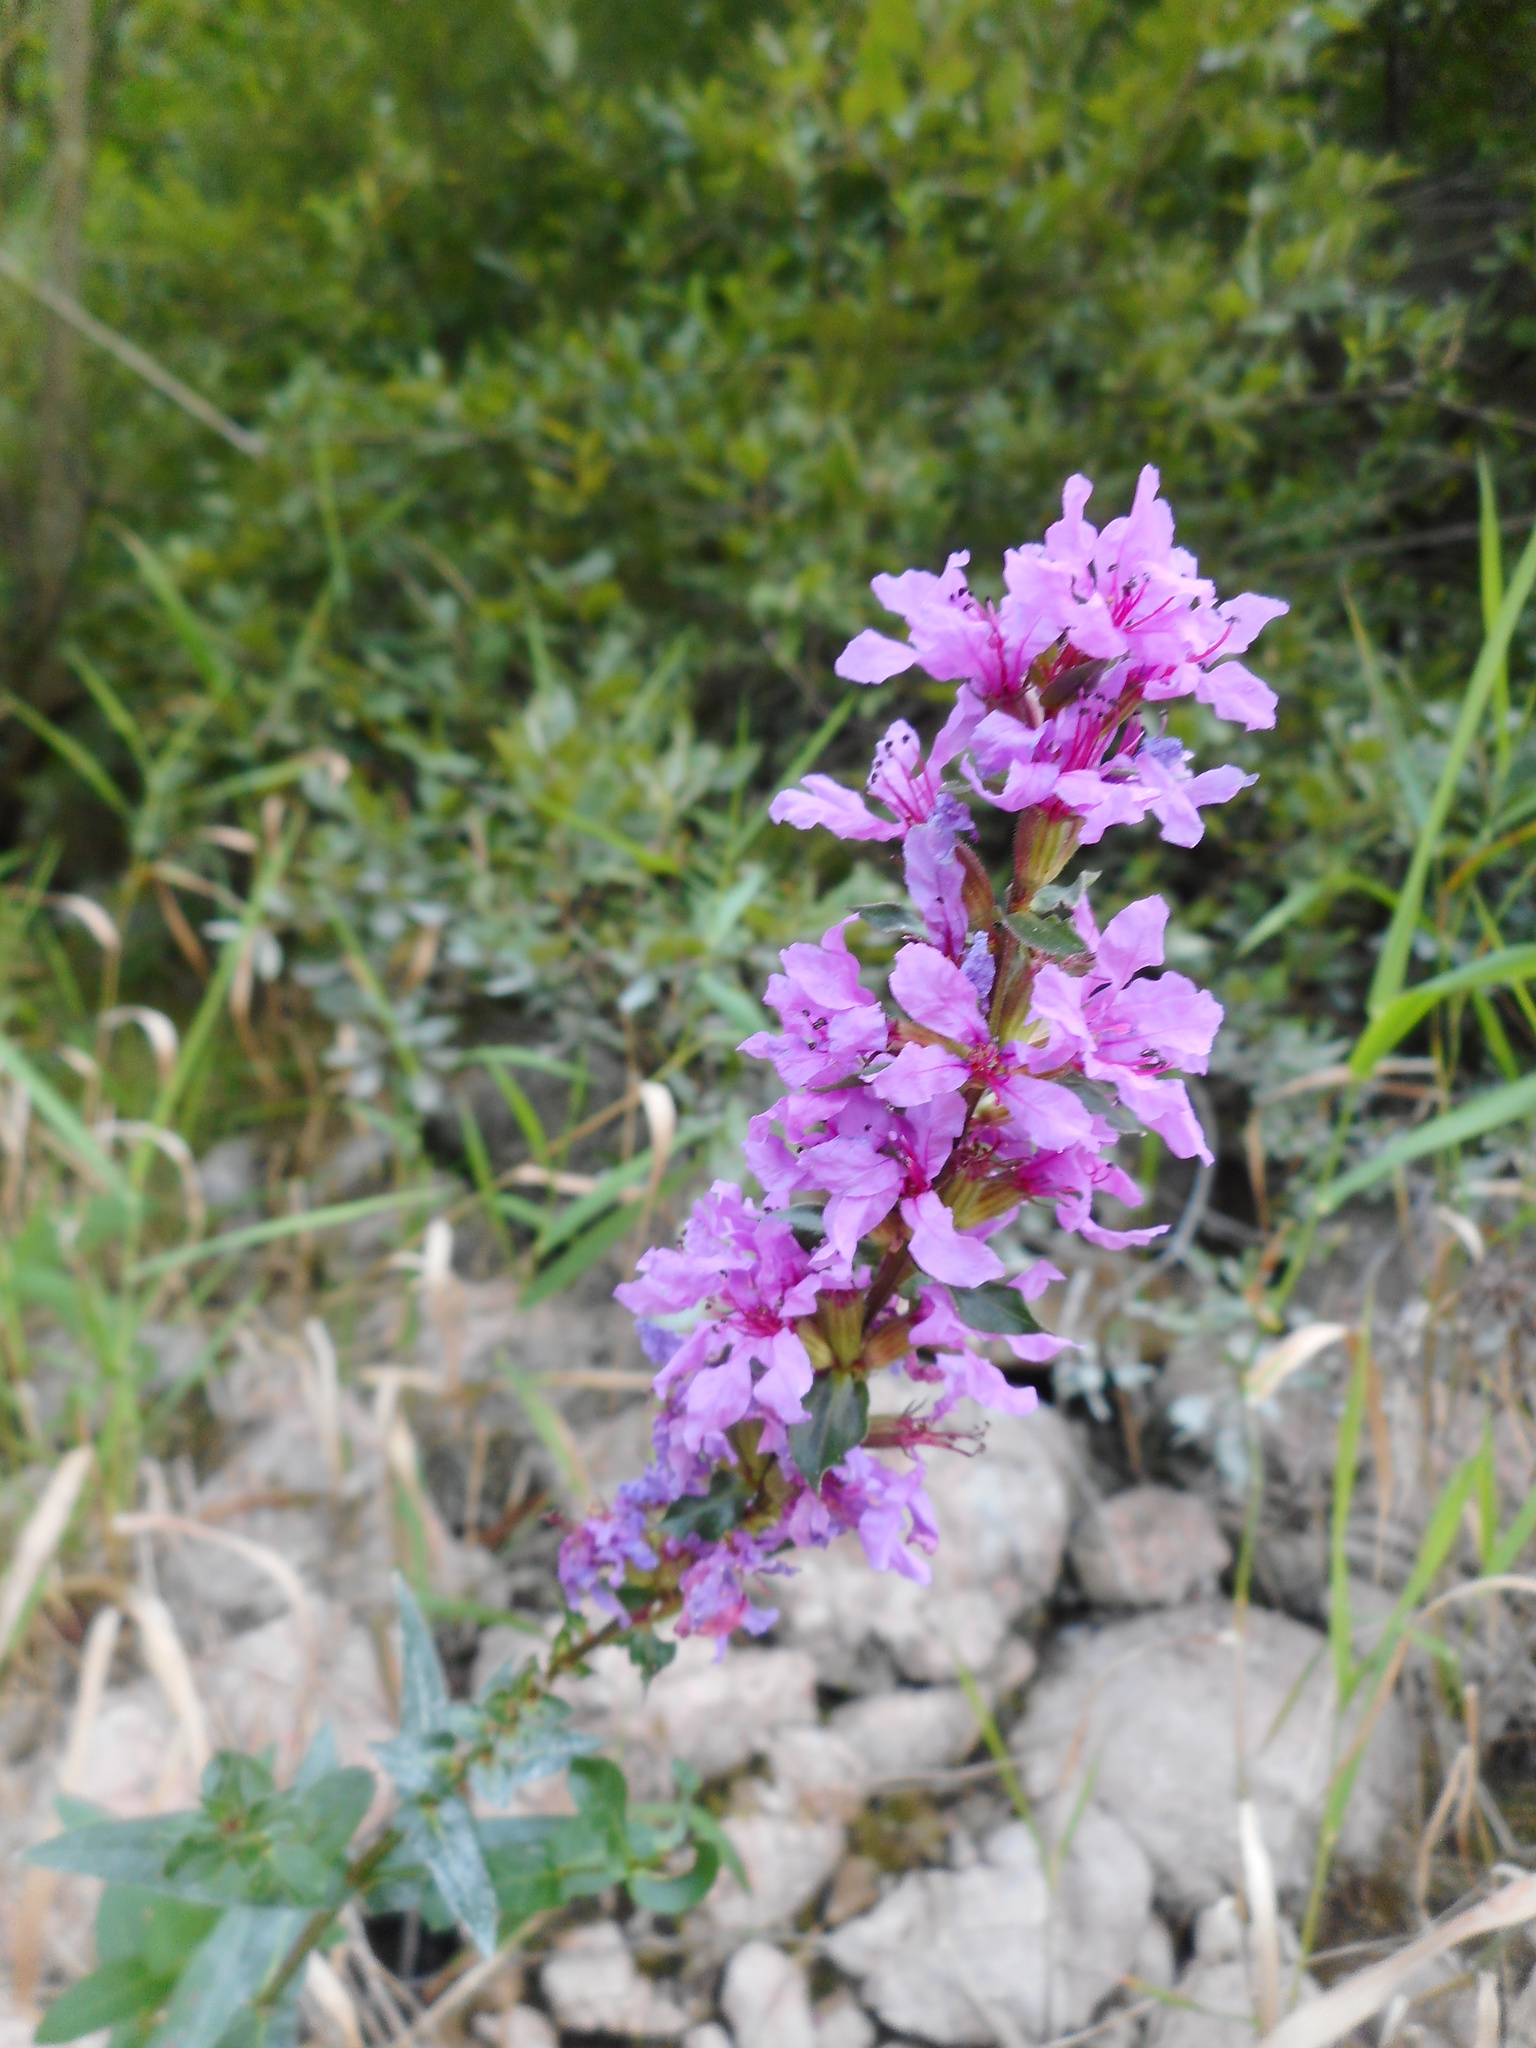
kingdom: Plantae
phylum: Tracheophyta
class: Magnoliopsida
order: Myrtales
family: Lythraceae
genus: Lythrum
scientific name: Lythrum salicaria
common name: Purple loosestrife
